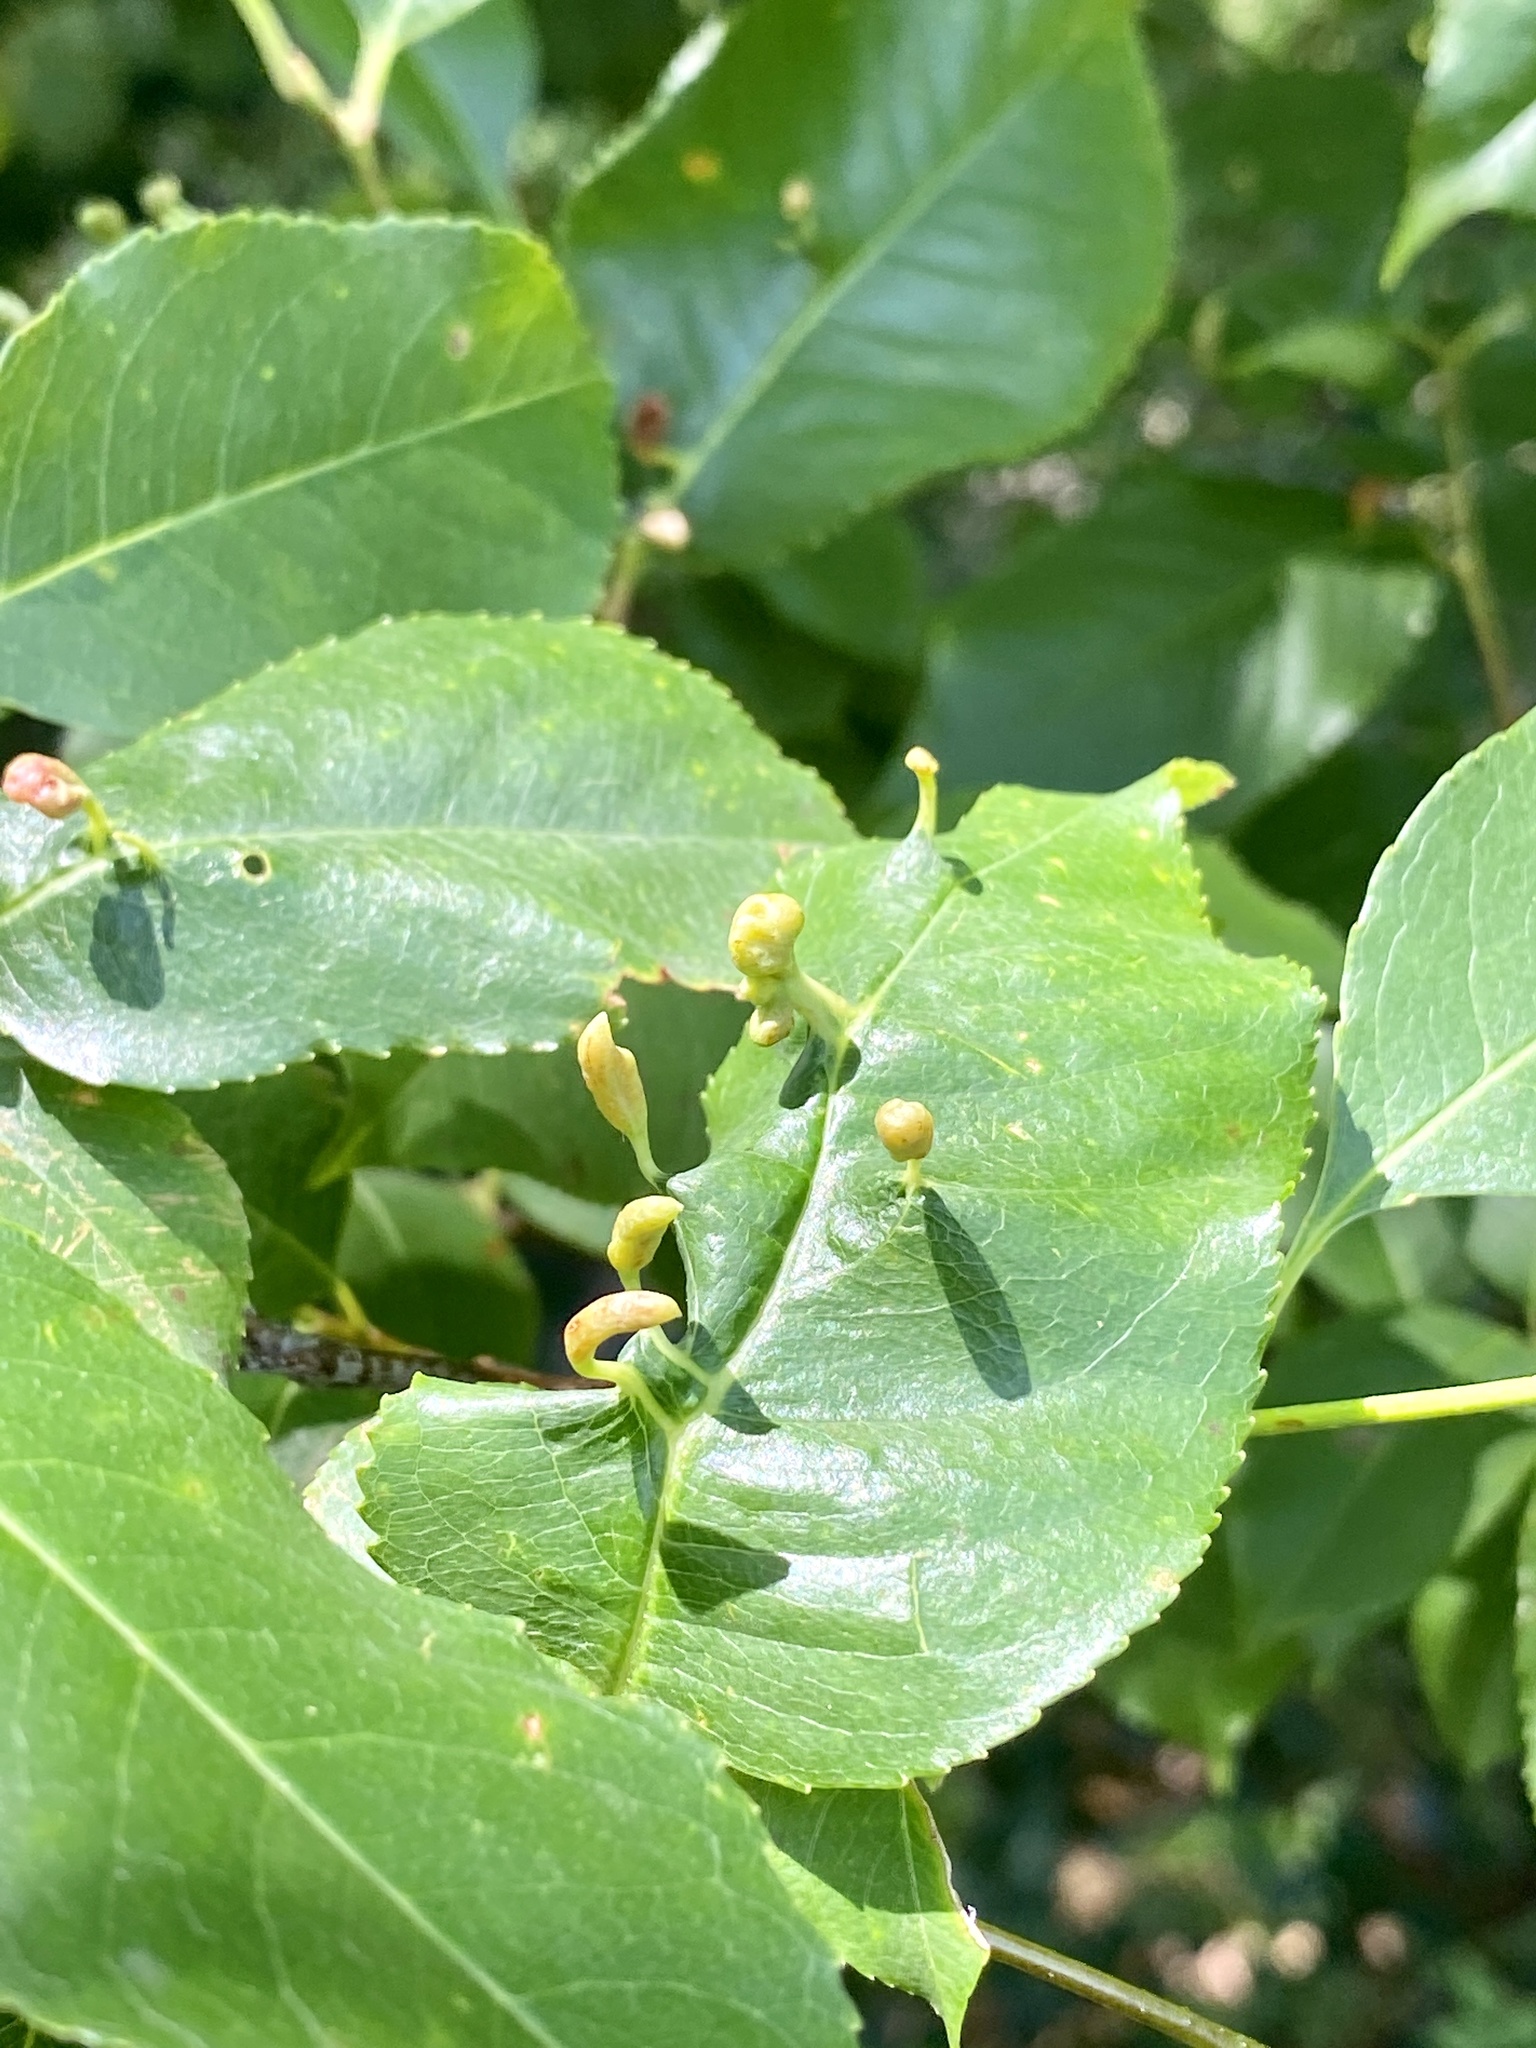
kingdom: Animalia
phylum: Arthropoda
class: Arachnida
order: Trombidiformes
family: Eriophyidae
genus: Eriophyes
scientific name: Eriophyes
